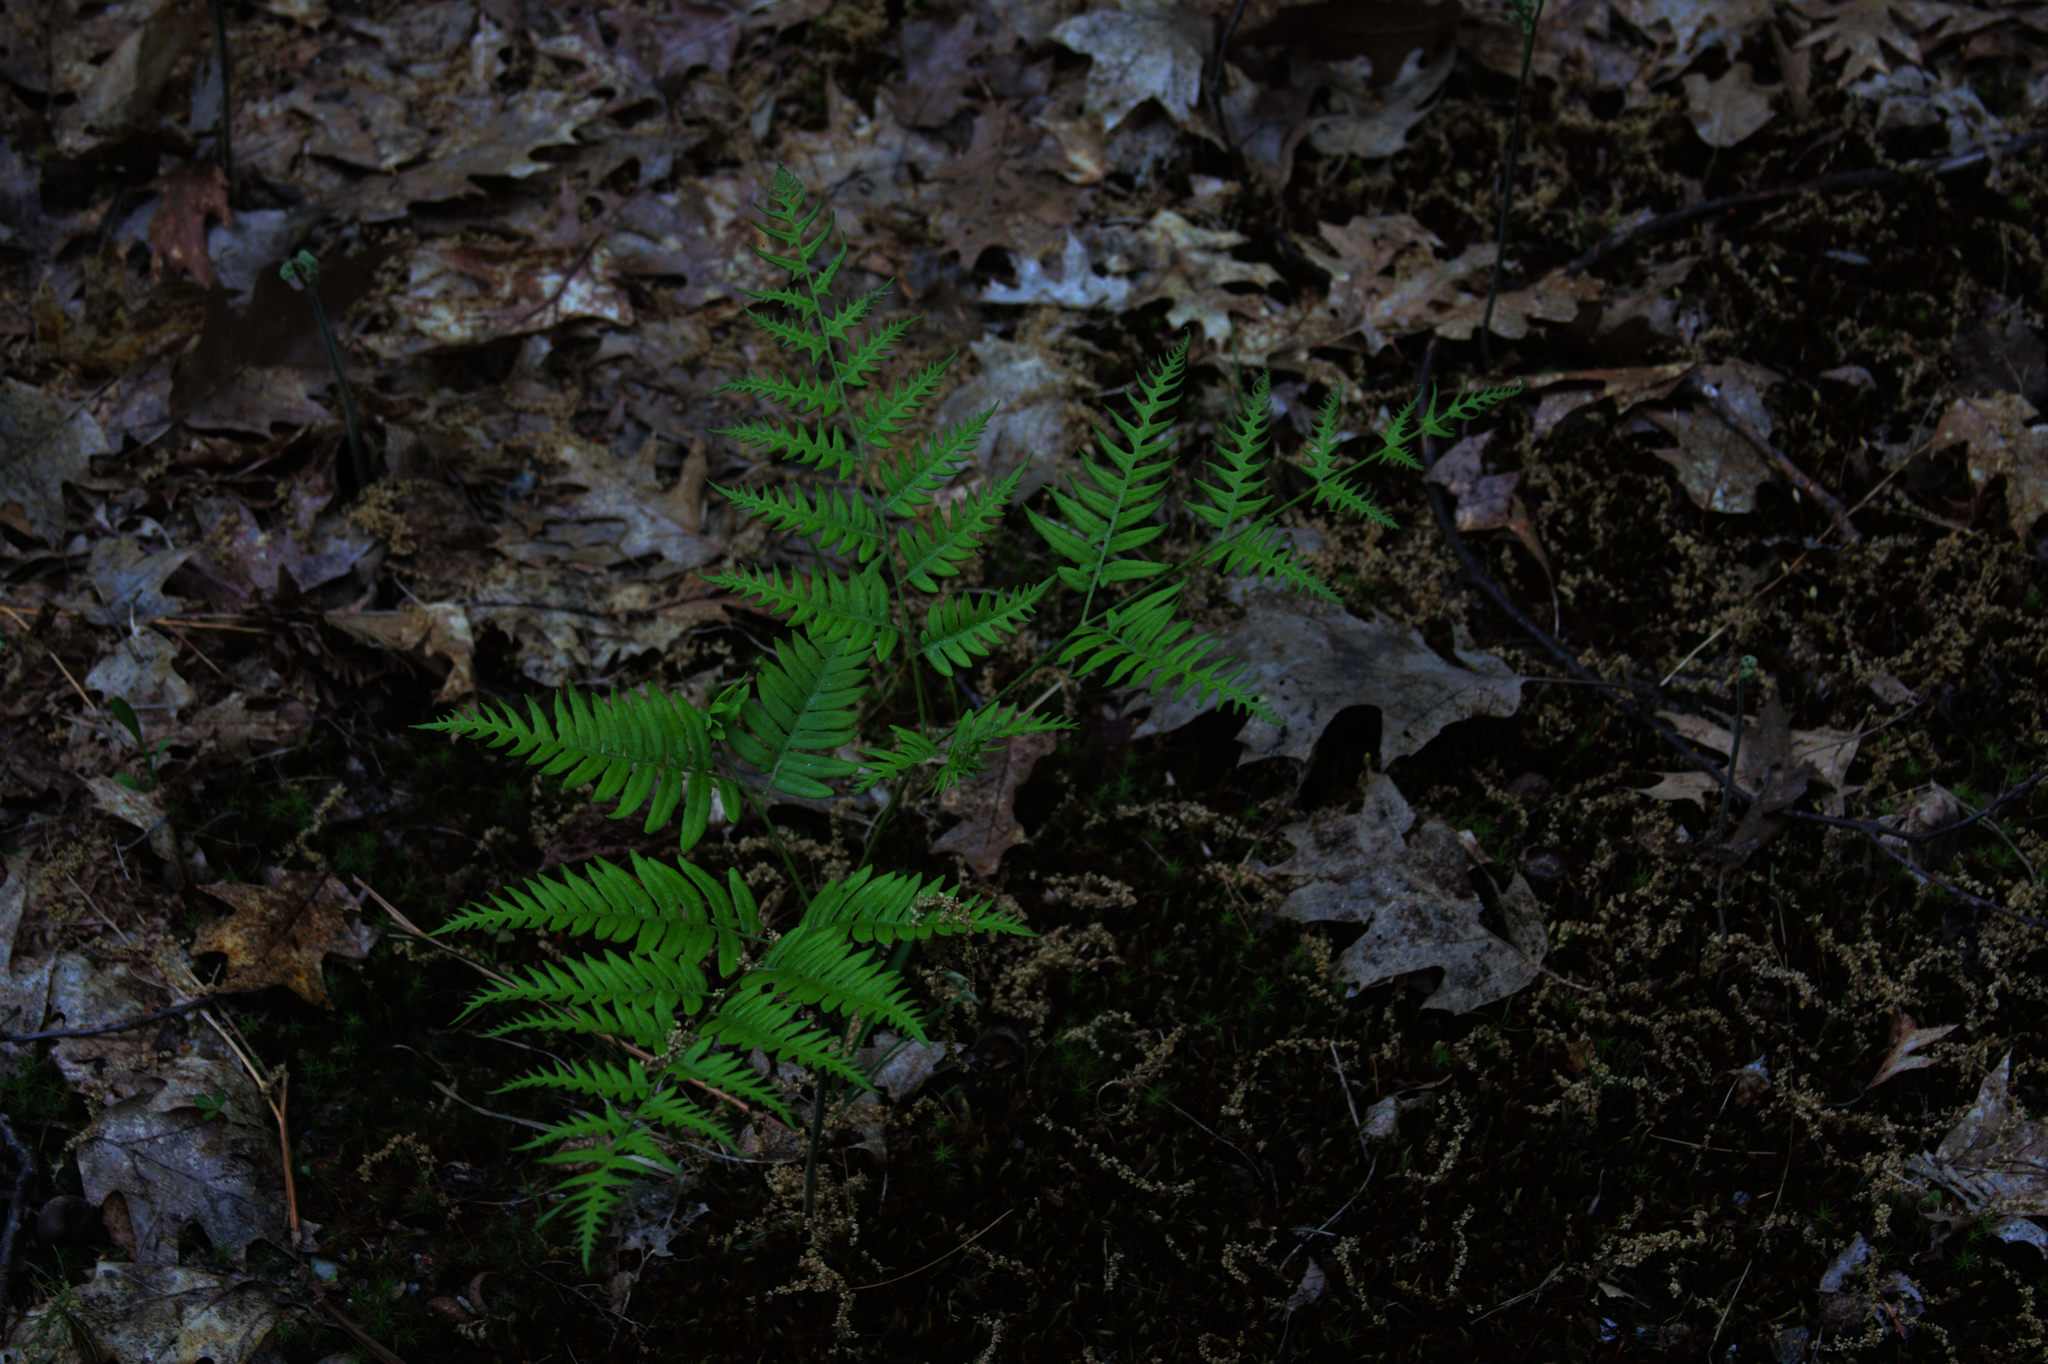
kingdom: Plantae
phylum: Tracheophyta
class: Polypodiopsida
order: Polypodiales
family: Dennstaedtiaceae
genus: Pteridium
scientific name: Pteridium aquilinum
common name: Bracken
